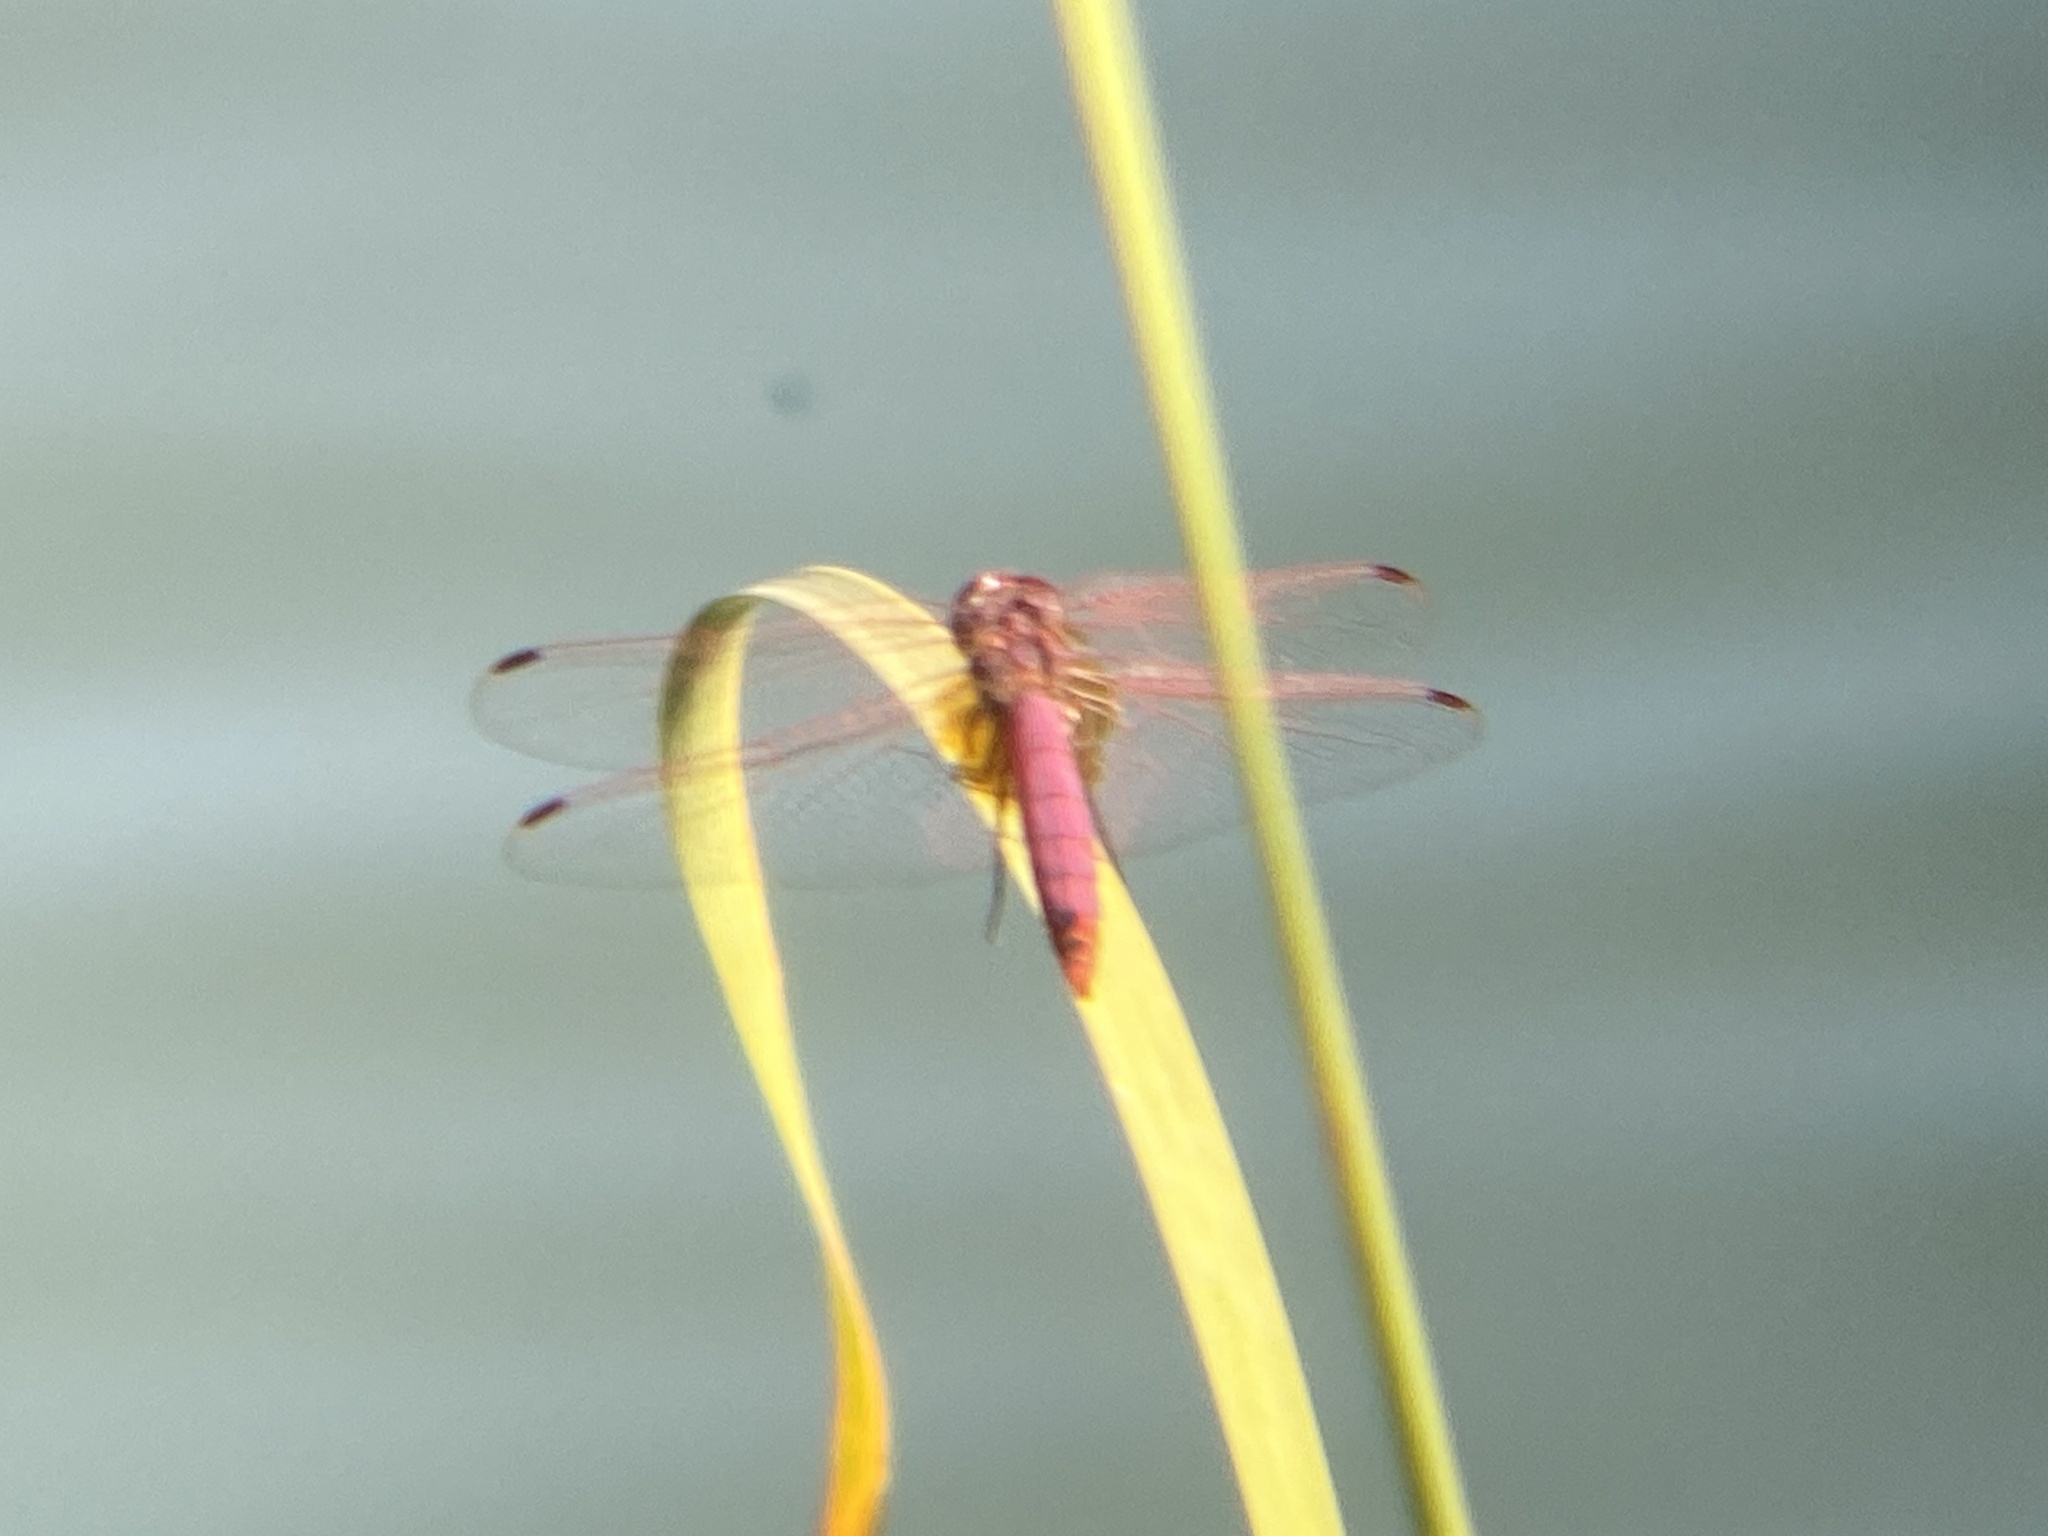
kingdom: Animalia
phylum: Arthropoda
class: Insecta
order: Odonata
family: Libellulidae
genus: Trithemis
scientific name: Trithemis annulata
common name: Violet dropwing
